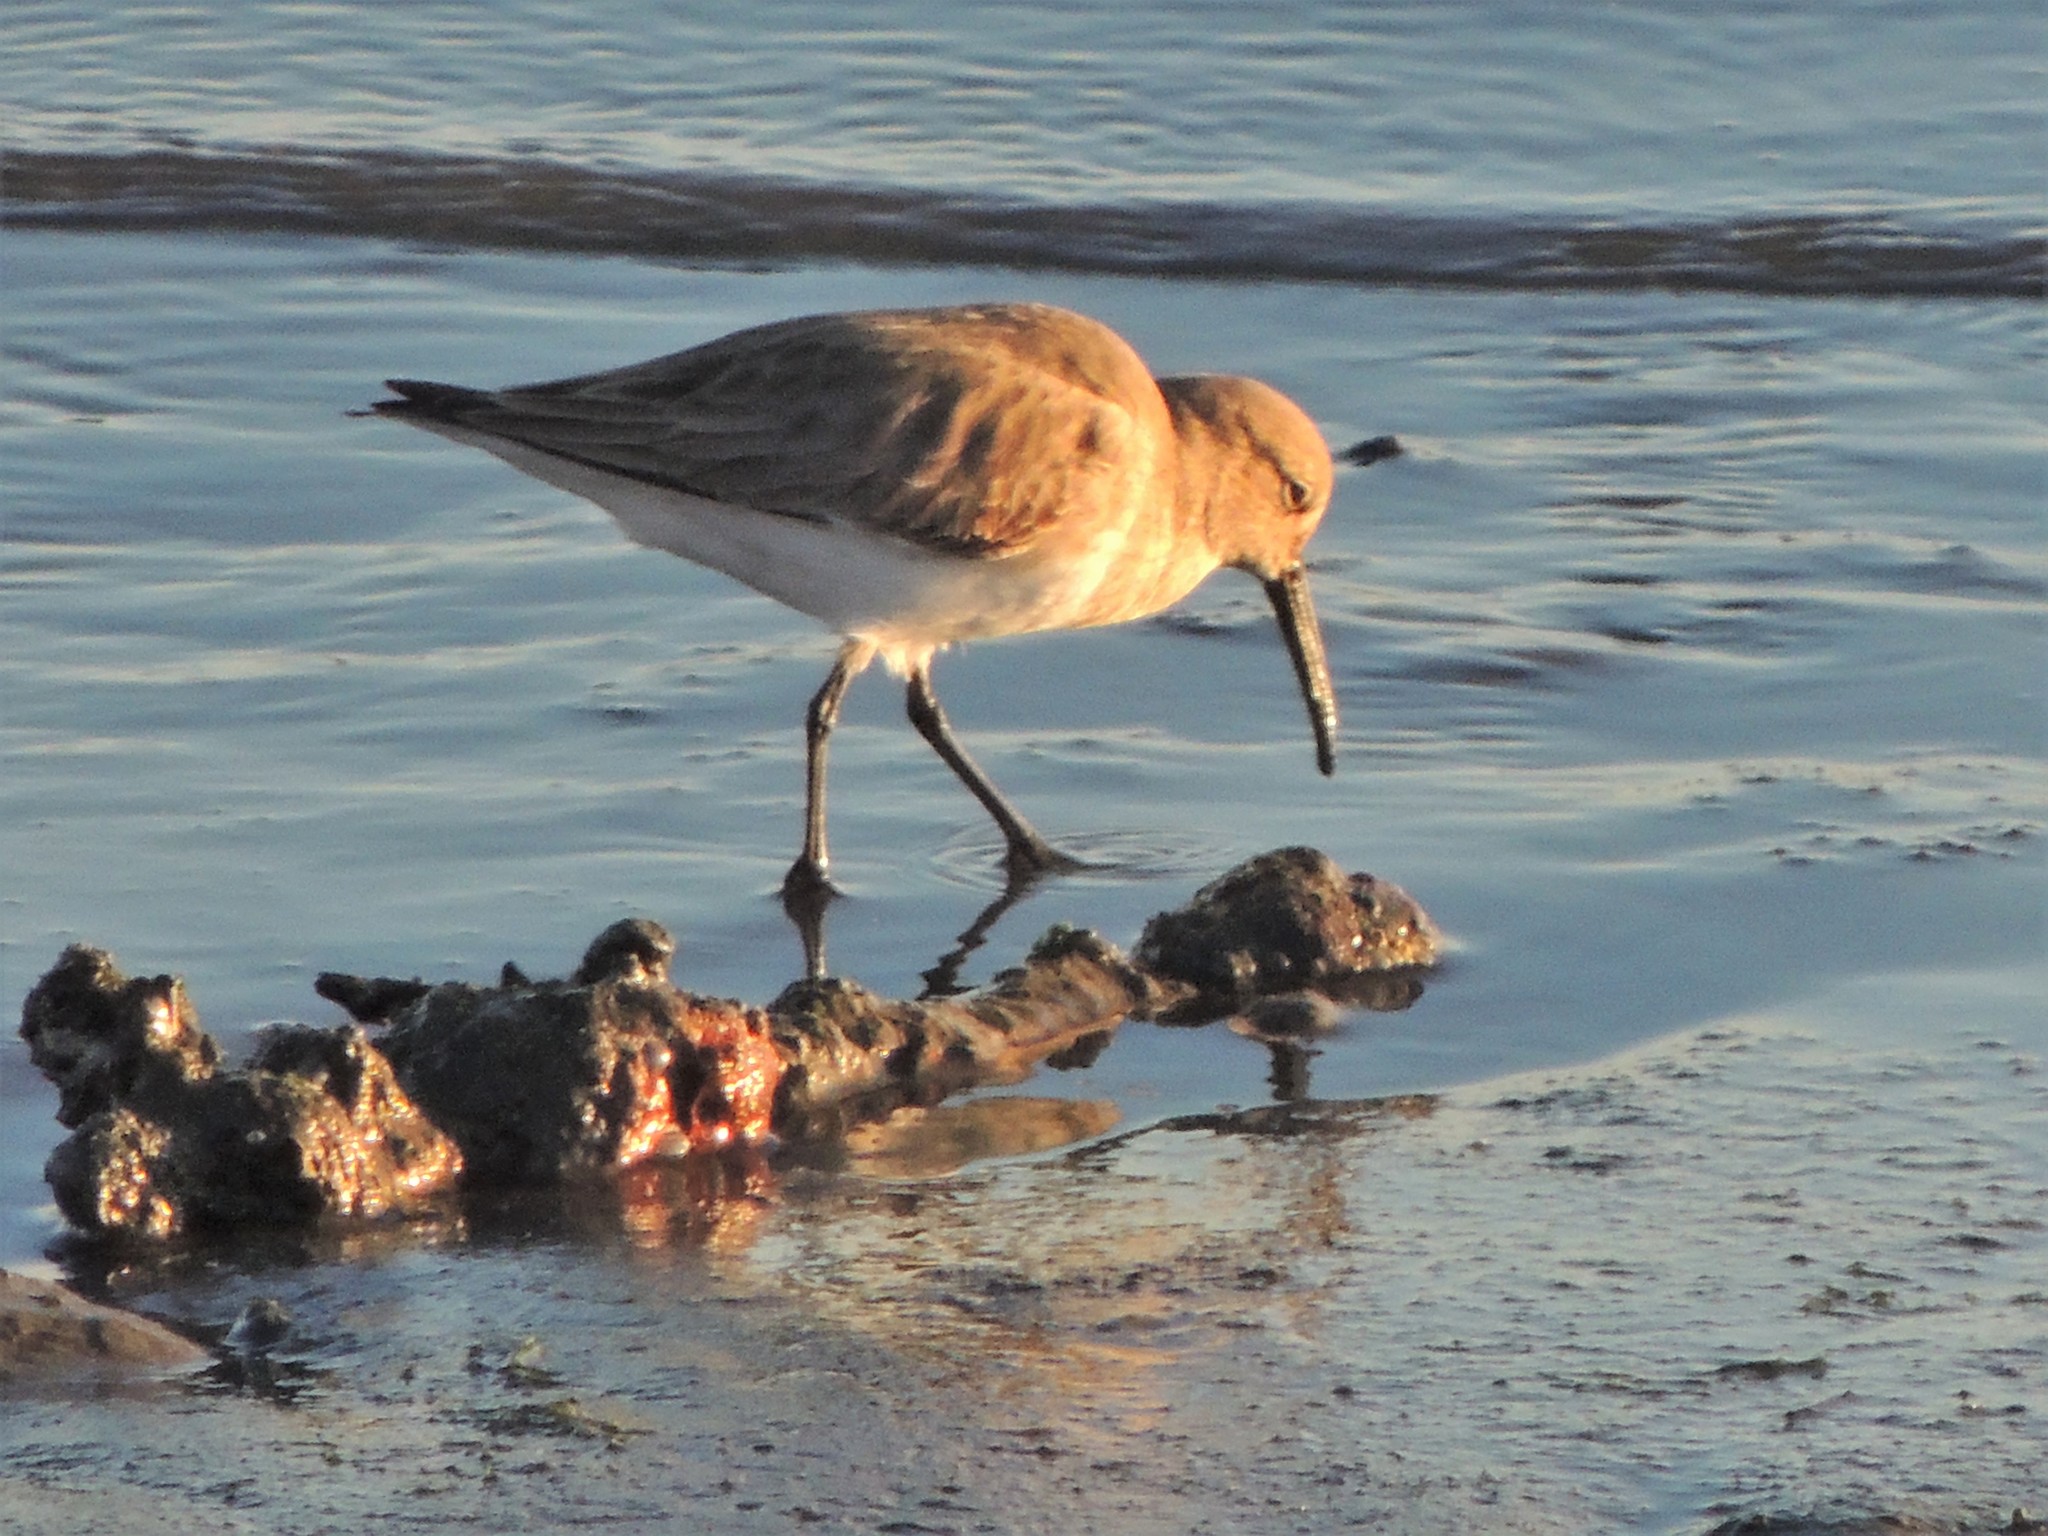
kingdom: Animalia
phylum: Chordata
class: Aves
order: Charadriiformes
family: Scolopacidae
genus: Calidris
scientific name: Calidris alpina
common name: Dunlin
